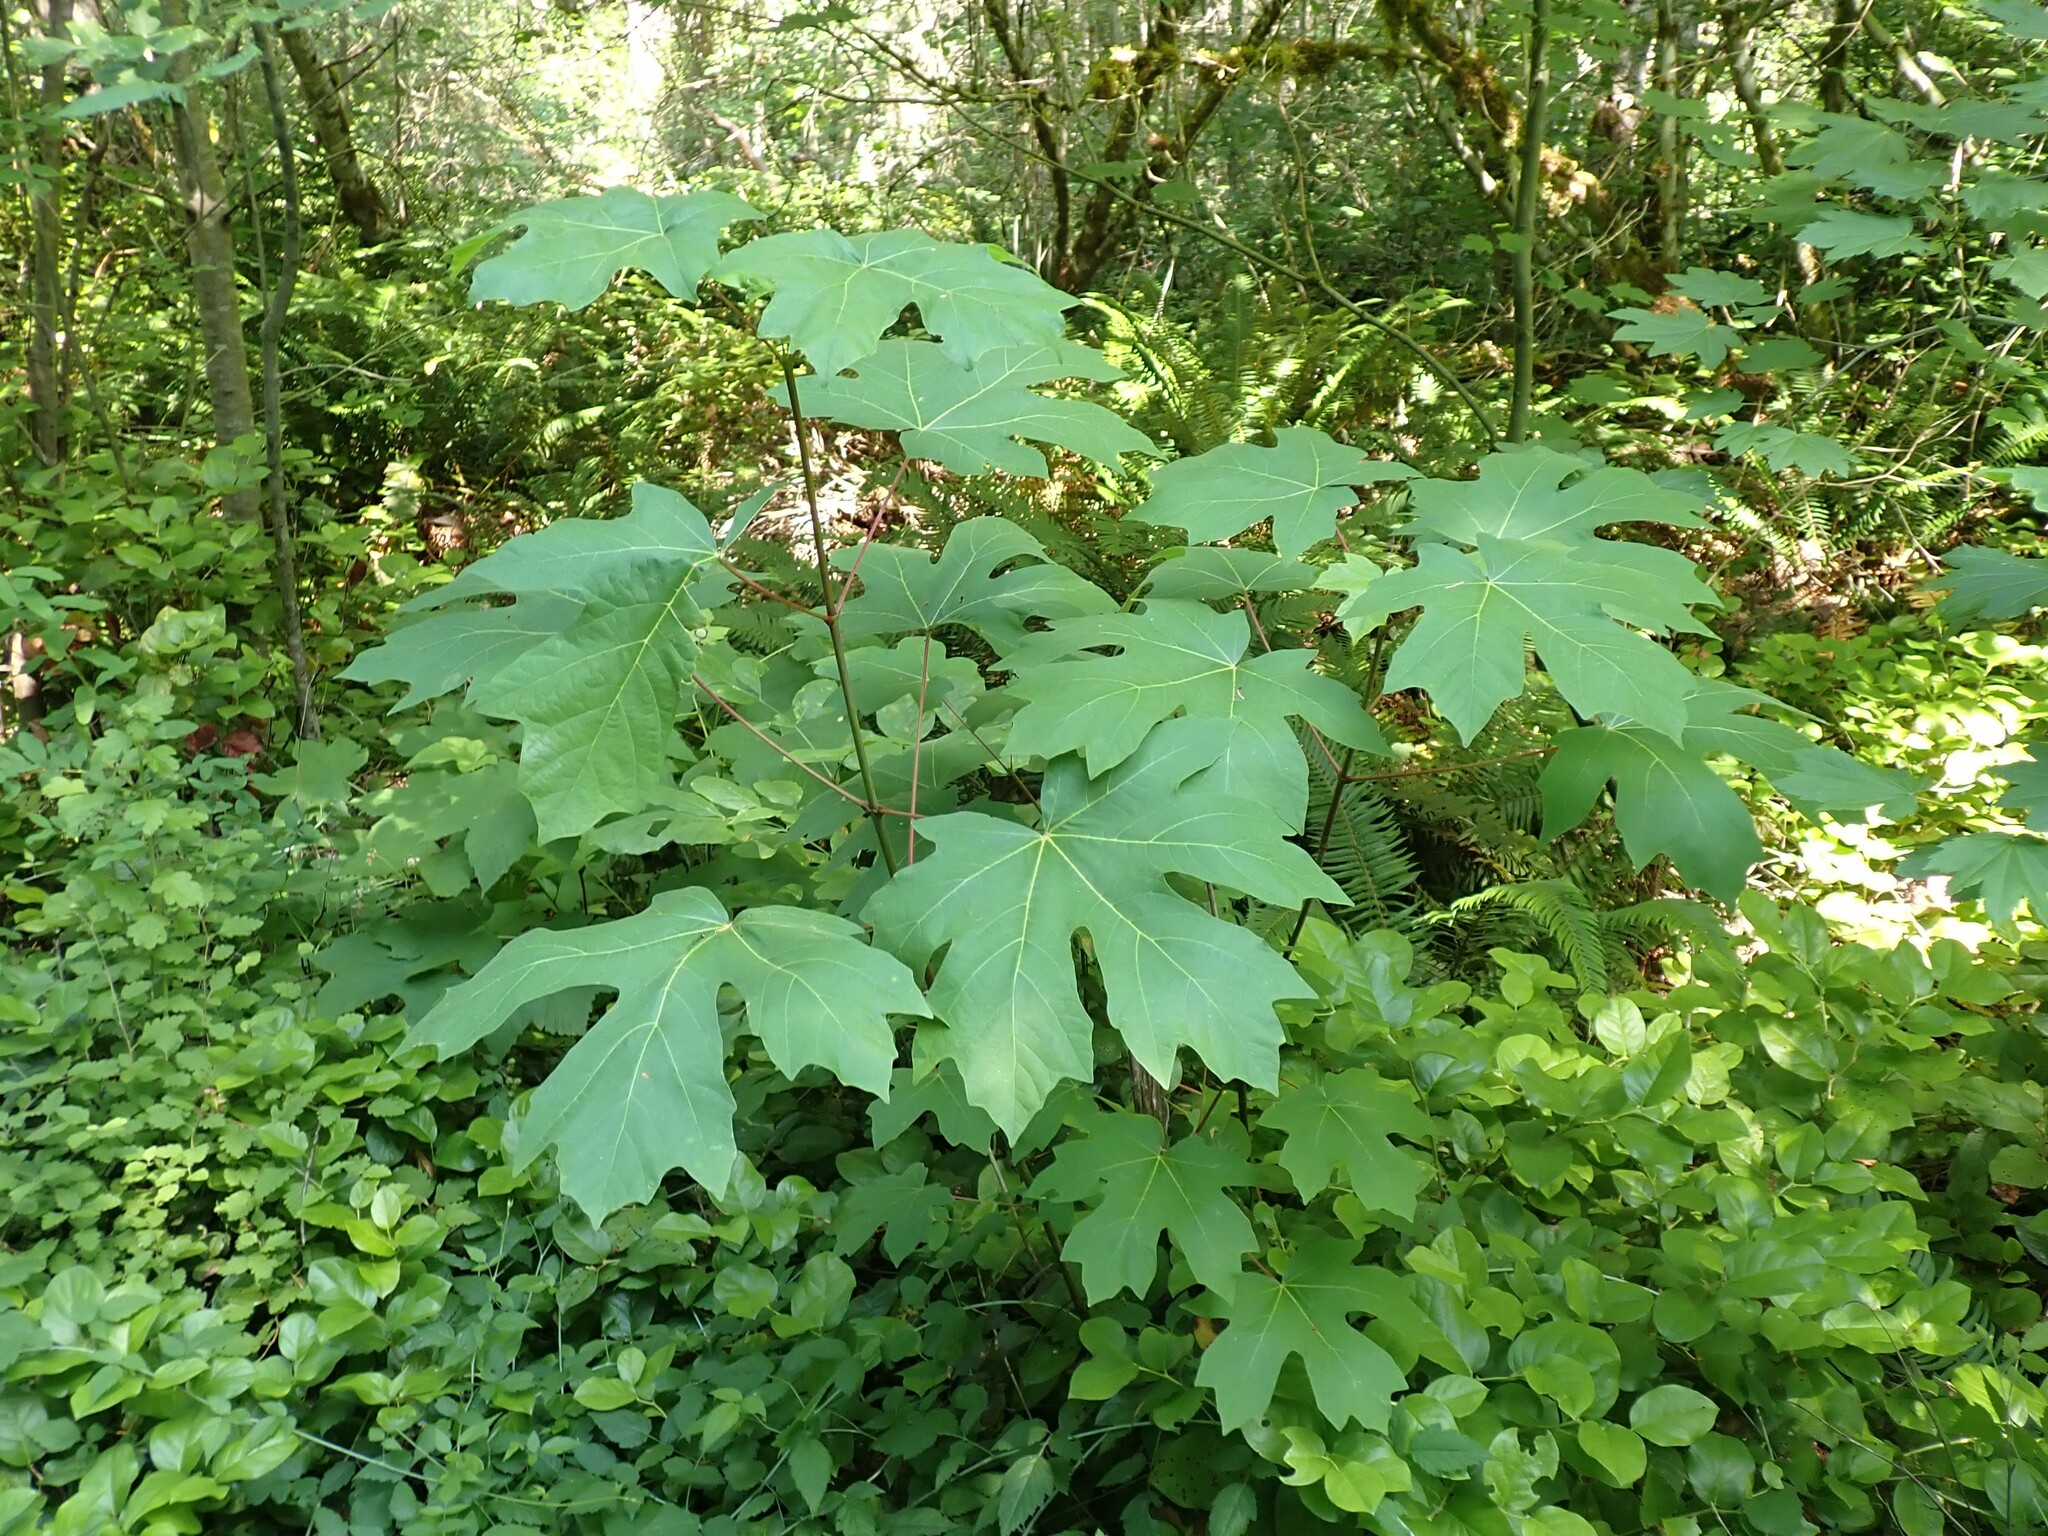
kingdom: Plantae
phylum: Tracheophyta
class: Magnoliopsida
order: Sapindales
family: Sapindaceae
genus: Acer
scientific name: Acer macrophyllum
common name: Oregon maple
